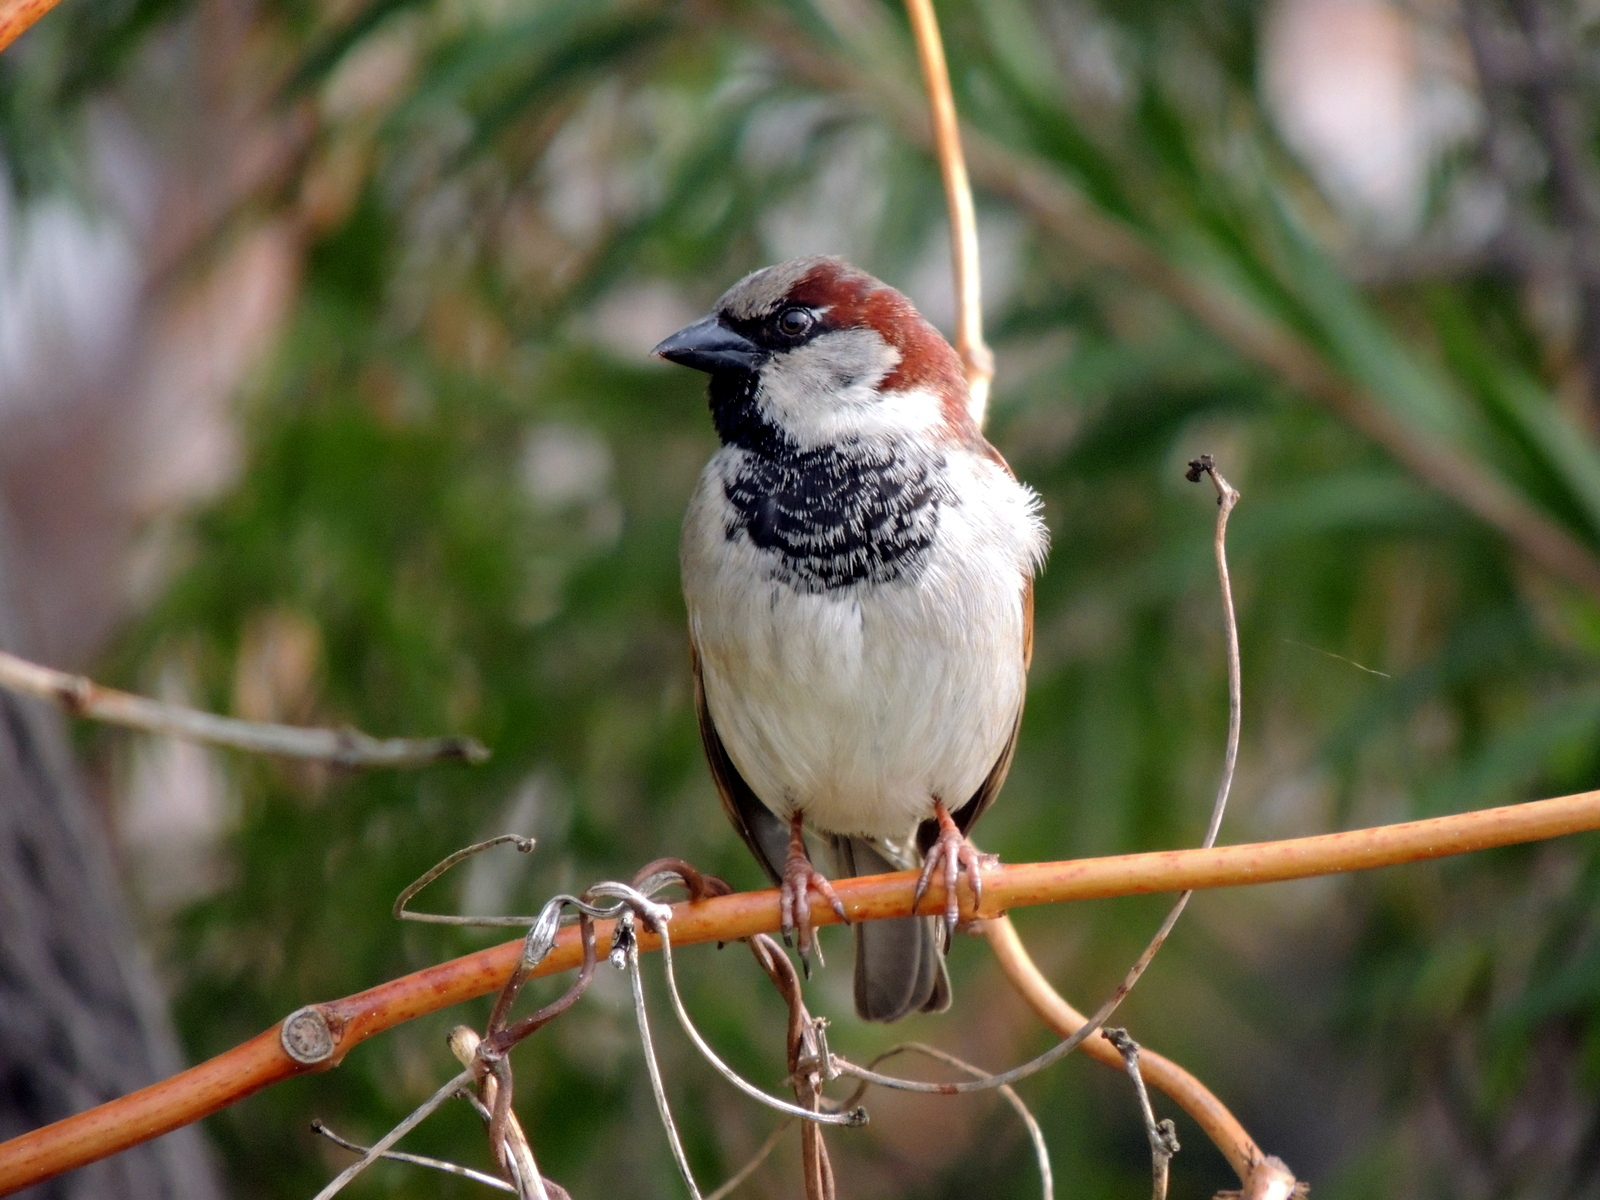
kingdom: Animalia
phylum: Chordata
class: Aves
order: Passeriformes
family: Passeridae
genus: Passer
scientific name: Passer domesticus
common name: House sparrow
